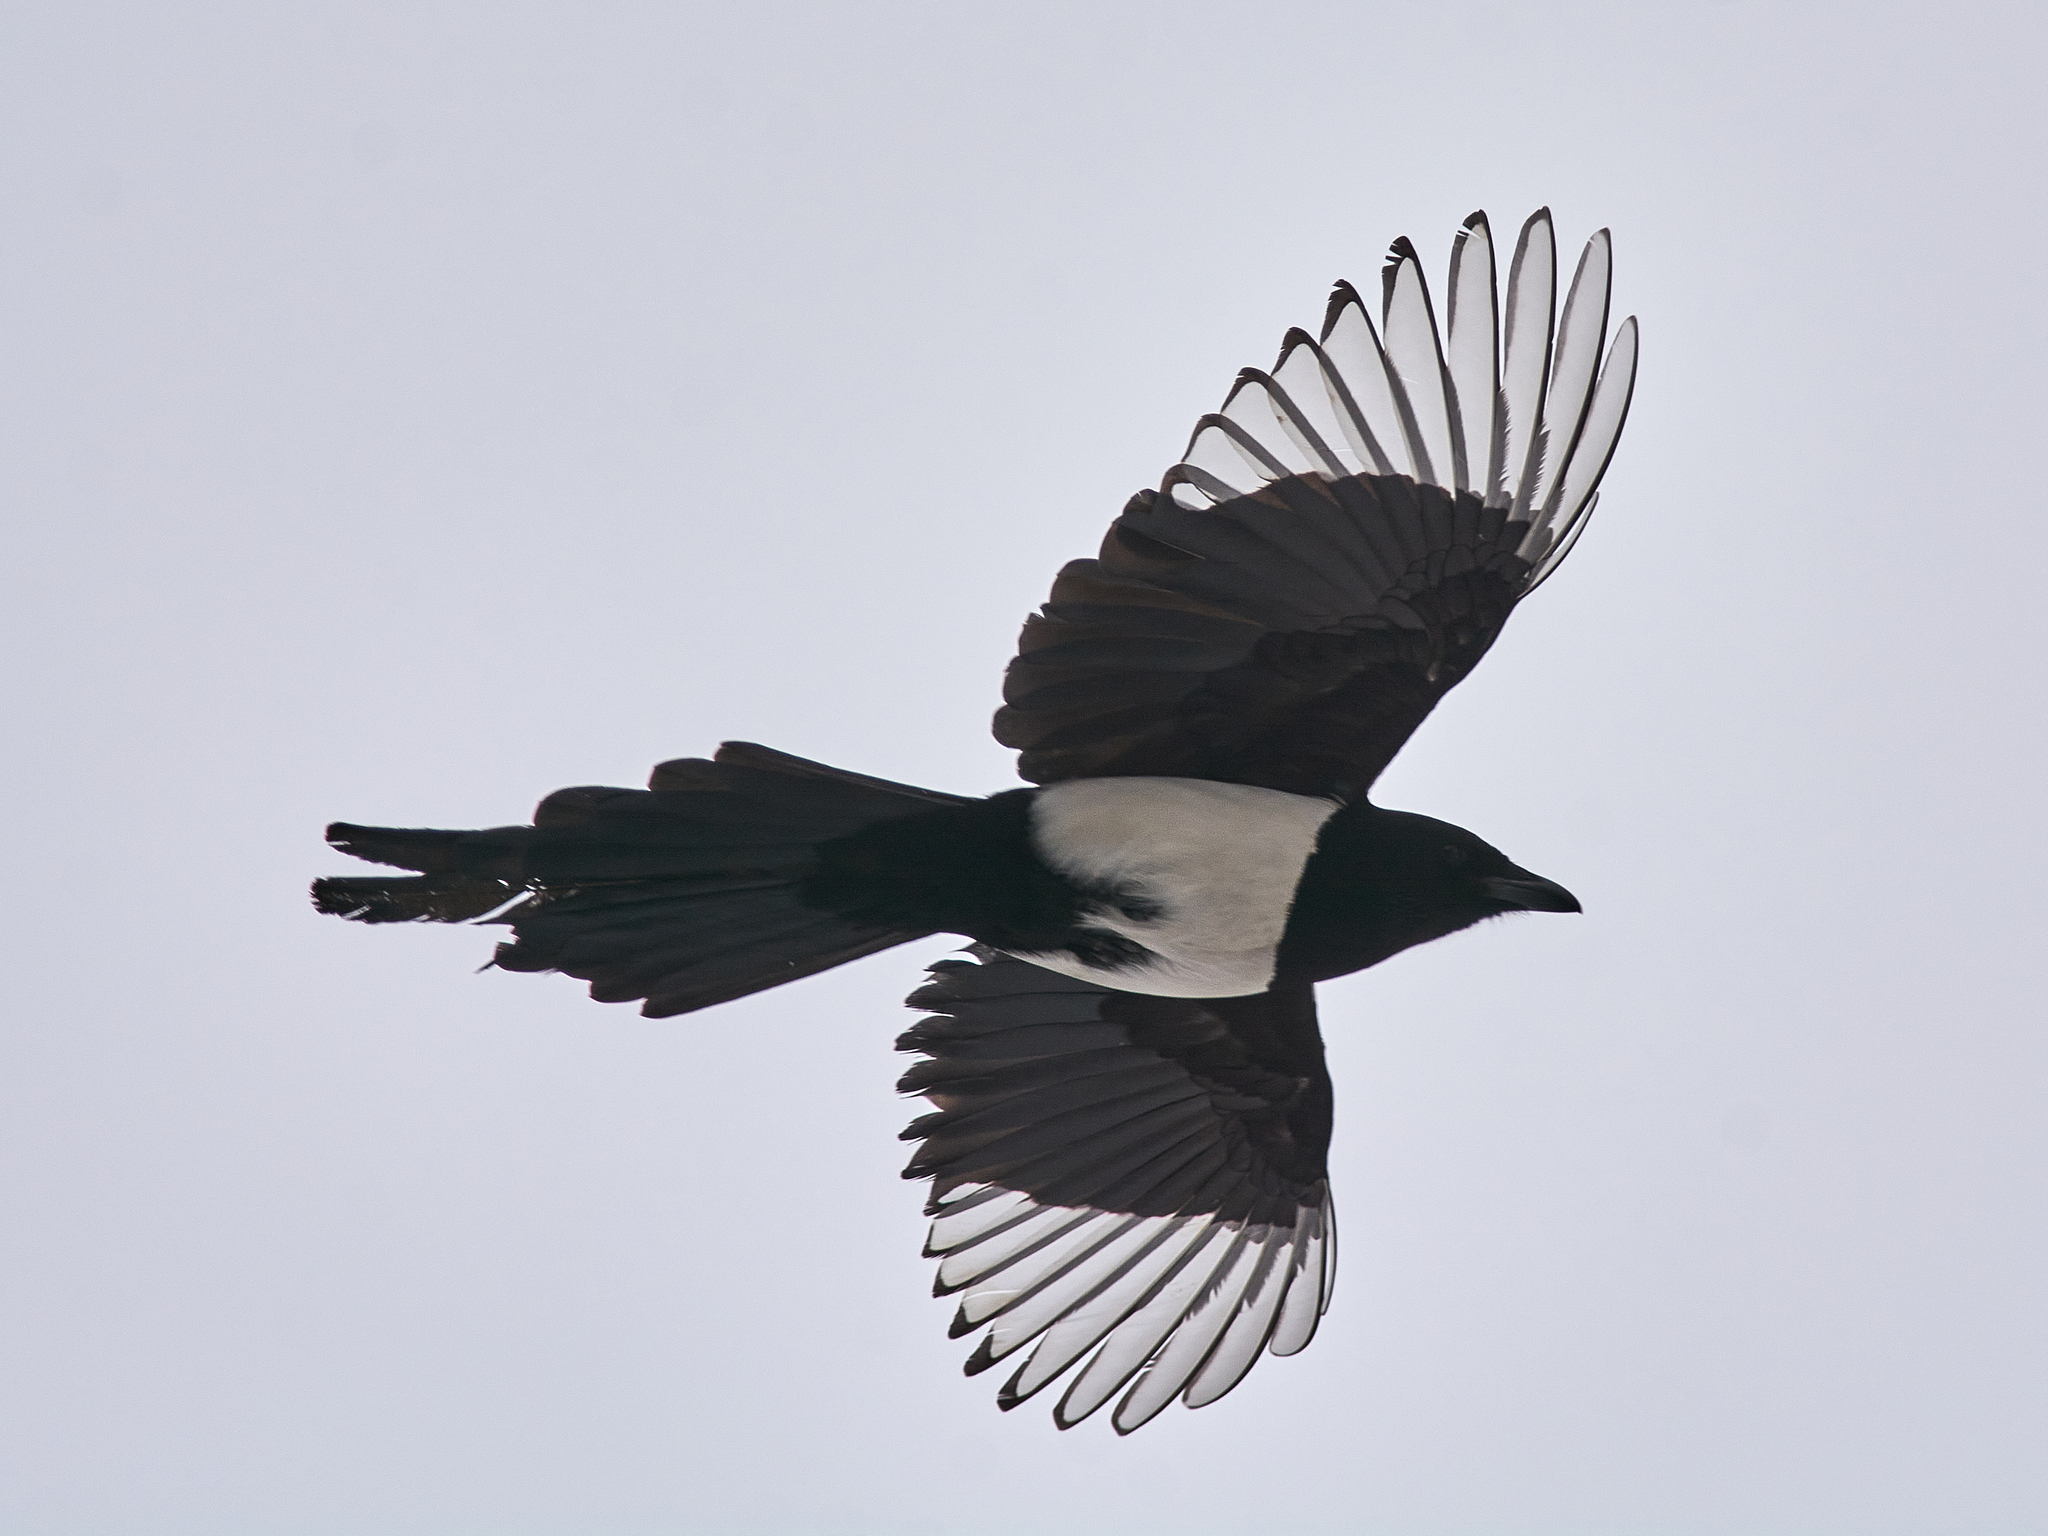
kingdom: Animalia
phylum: Chordata
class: Aves
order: Passeriformes
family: Corvidae
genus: Pica
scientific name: Pica pica
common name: Eurasian magpie
